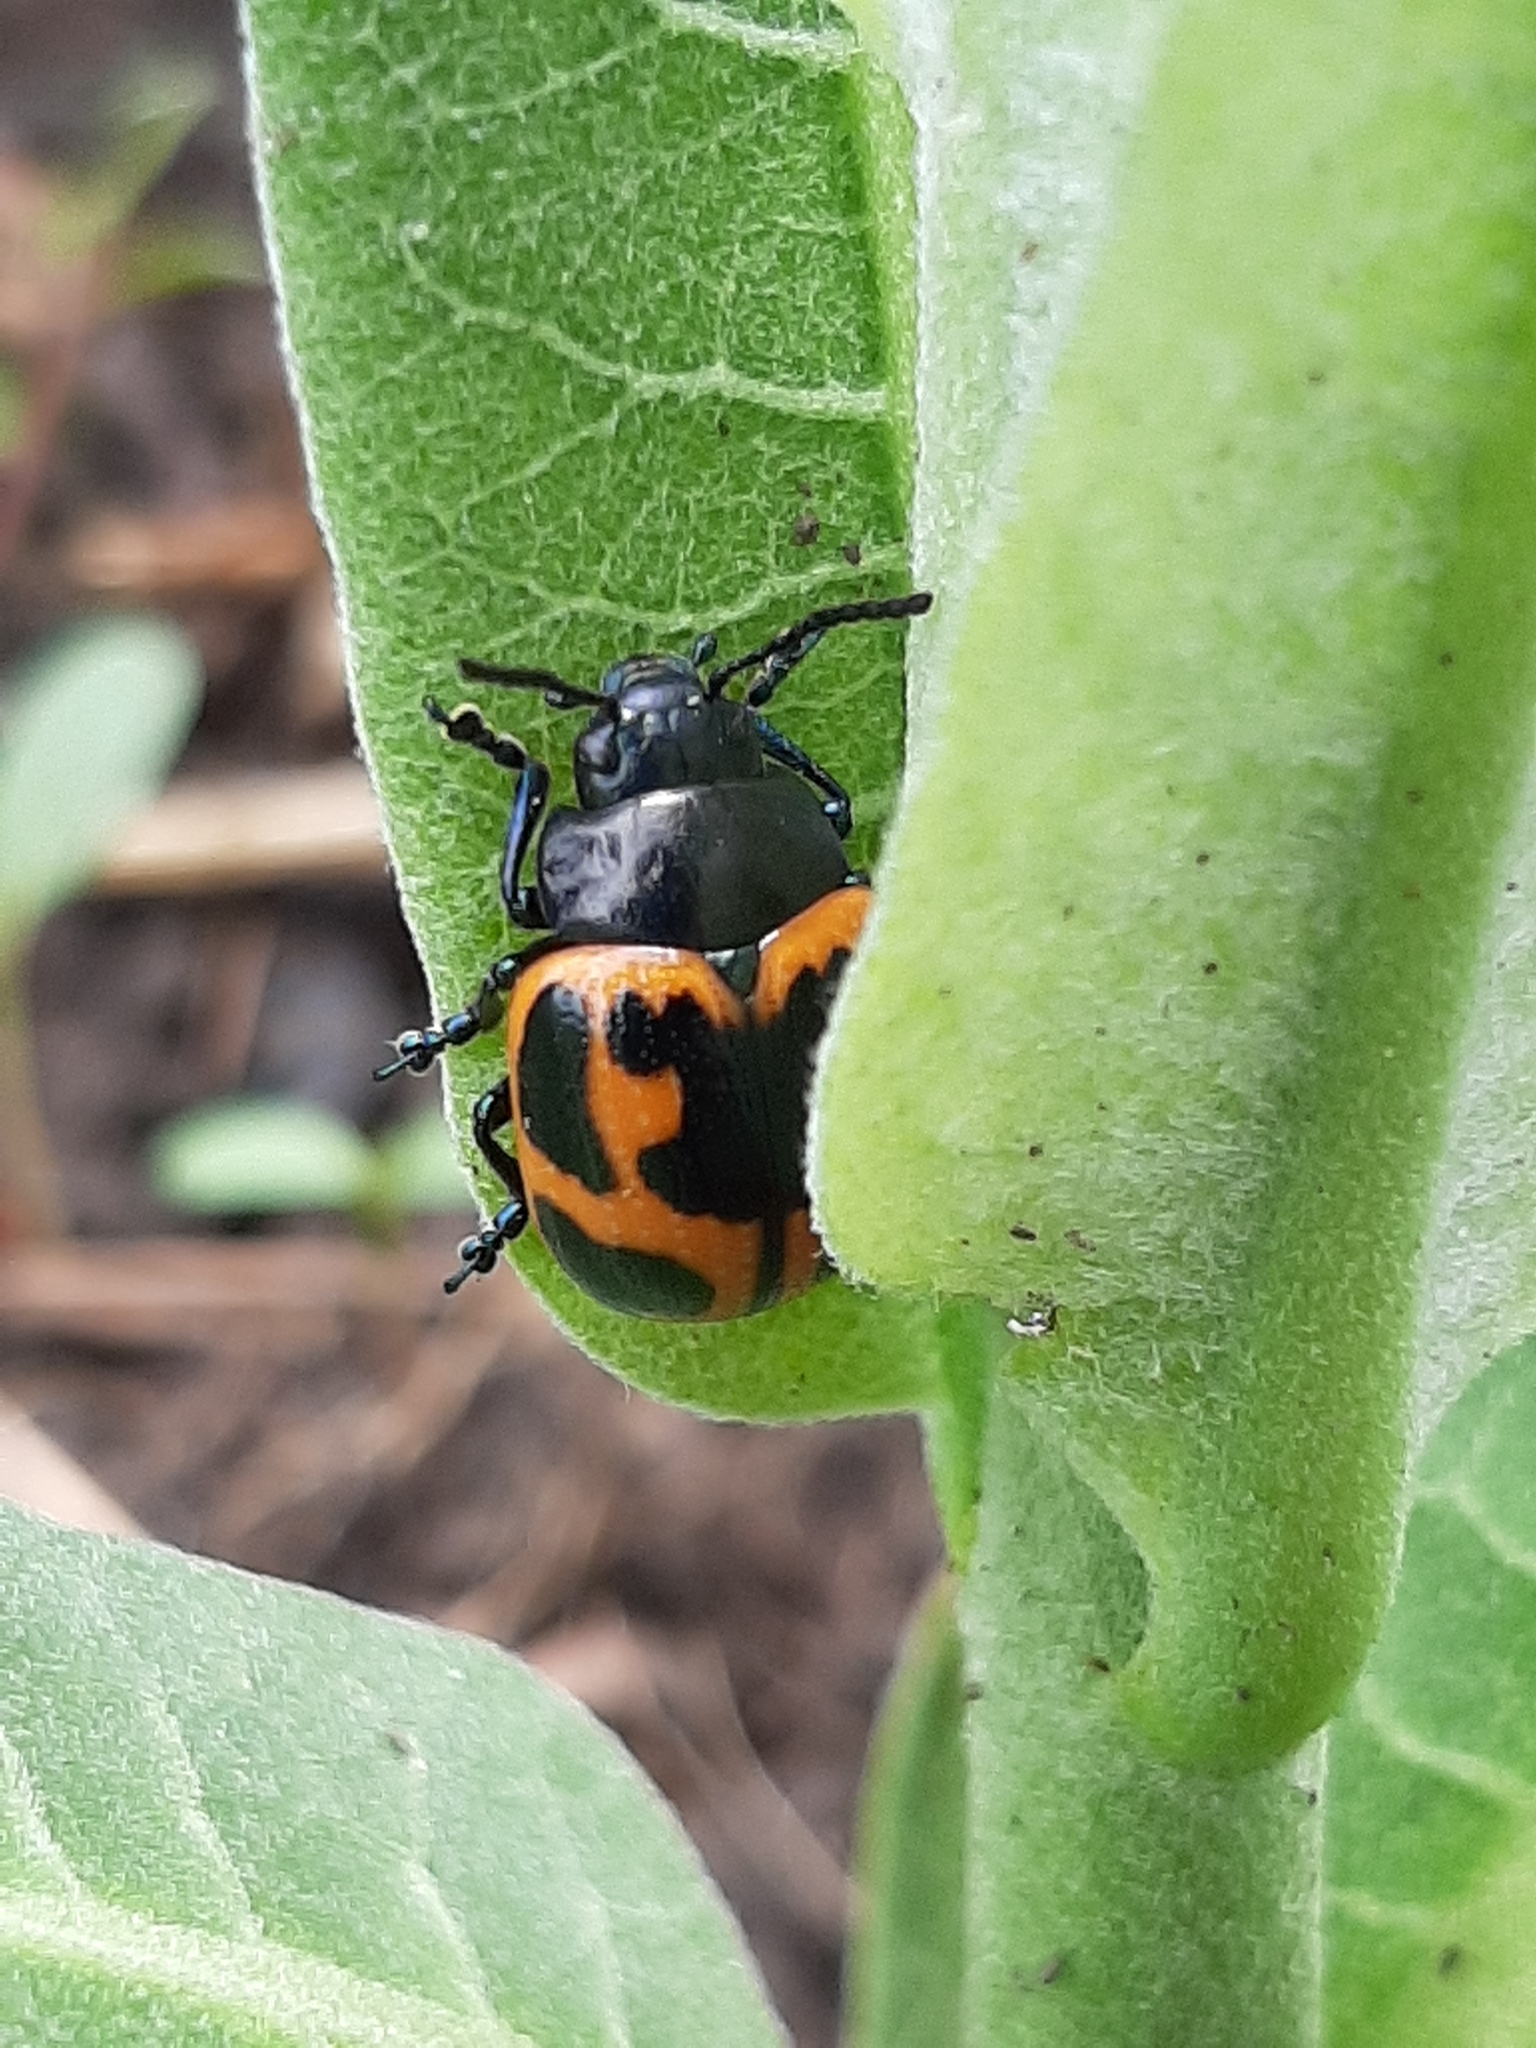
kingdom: Animalia
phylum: Arthropoda
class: Insecta
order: Coleoptera
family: Chrysomelidae
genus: Labidomera
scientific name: Labidomera clivicollis
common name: Swamp milkweed leaf beetle
